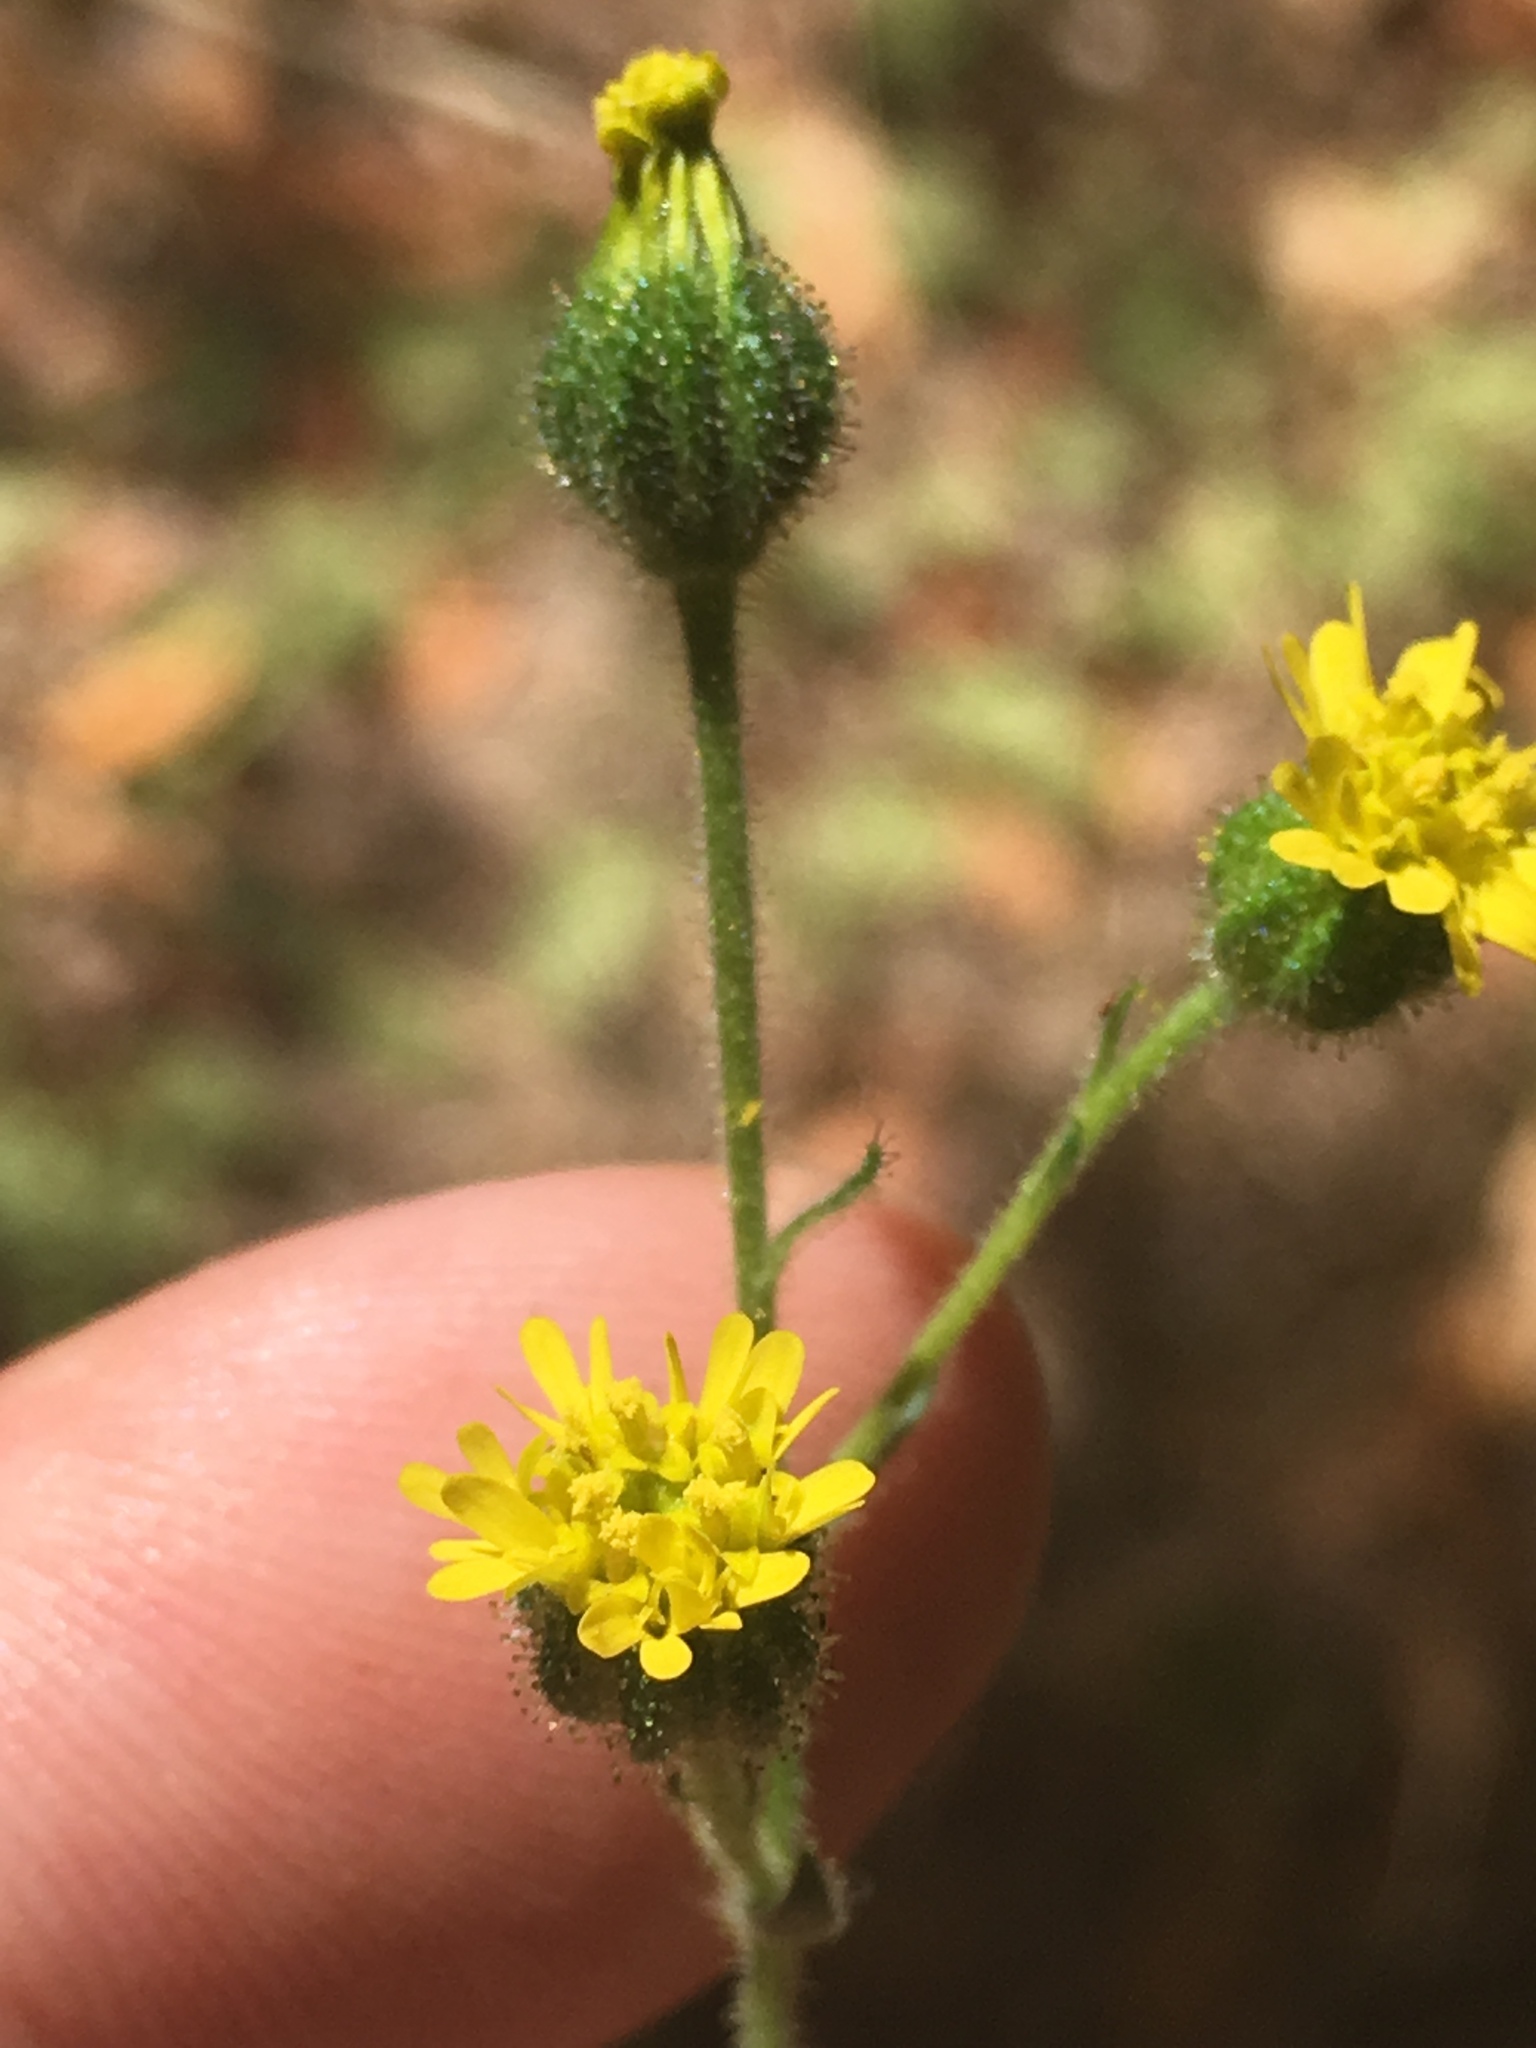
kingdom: Plantae
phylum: Tracheophyta
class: Magnoliopsida
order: Asterales
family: Asteraceae
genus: Anisocarpus
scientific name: Anisocarpus madioides
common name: Woodland madia
